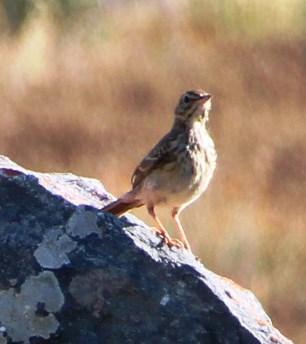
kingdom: Animalia
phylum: Chordata
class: Aves
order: Passeriformes
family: Motacillidae
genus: Anthus
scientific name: Anthus cinnamomeus
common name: African pipit
